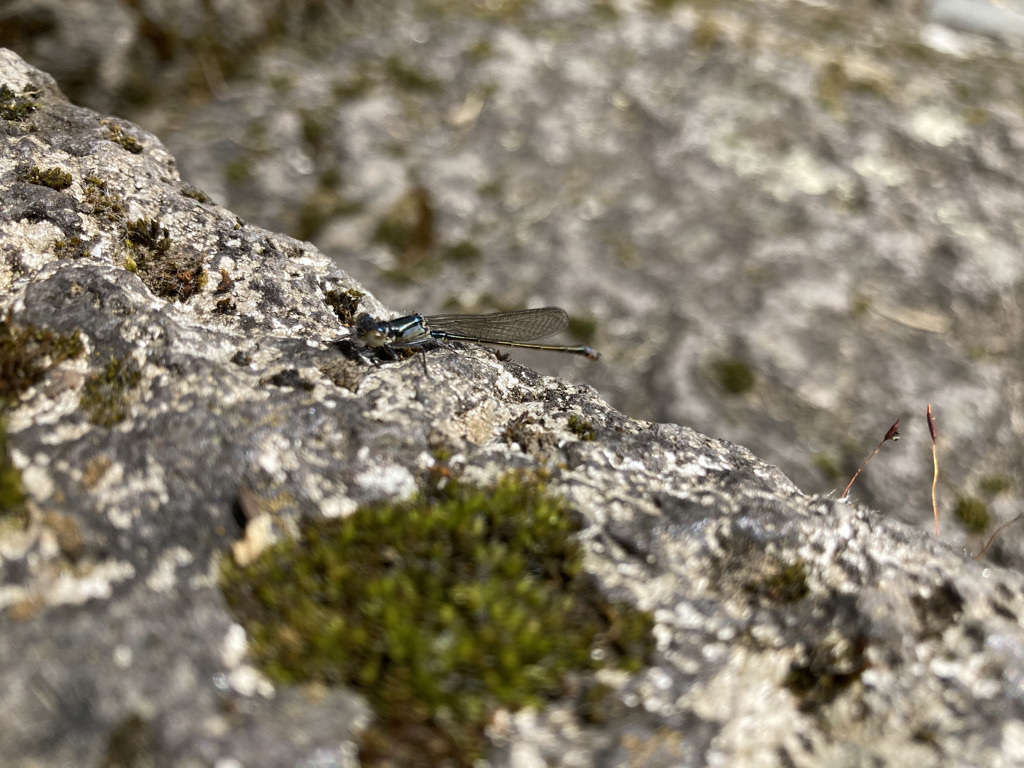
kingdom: Animalia
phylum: Arthropoda
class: Insecta
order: Odonata
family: Coenagrionidae
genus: Ischnura
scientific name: Ischnura cervula
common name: Pacific forktail
